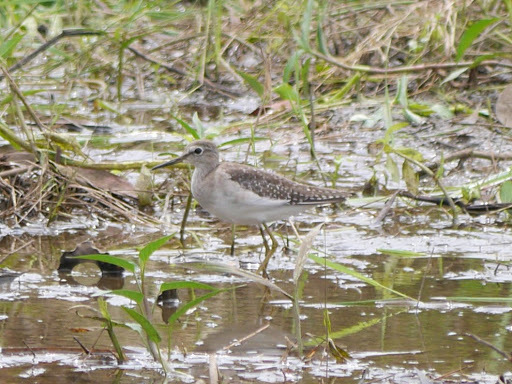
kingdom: Animalia
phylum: Chordata
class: Aves
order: Charadriiformes
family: Scolopacidae
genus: Tringa
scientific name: Tringa glareola
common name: Wood sandpiper
